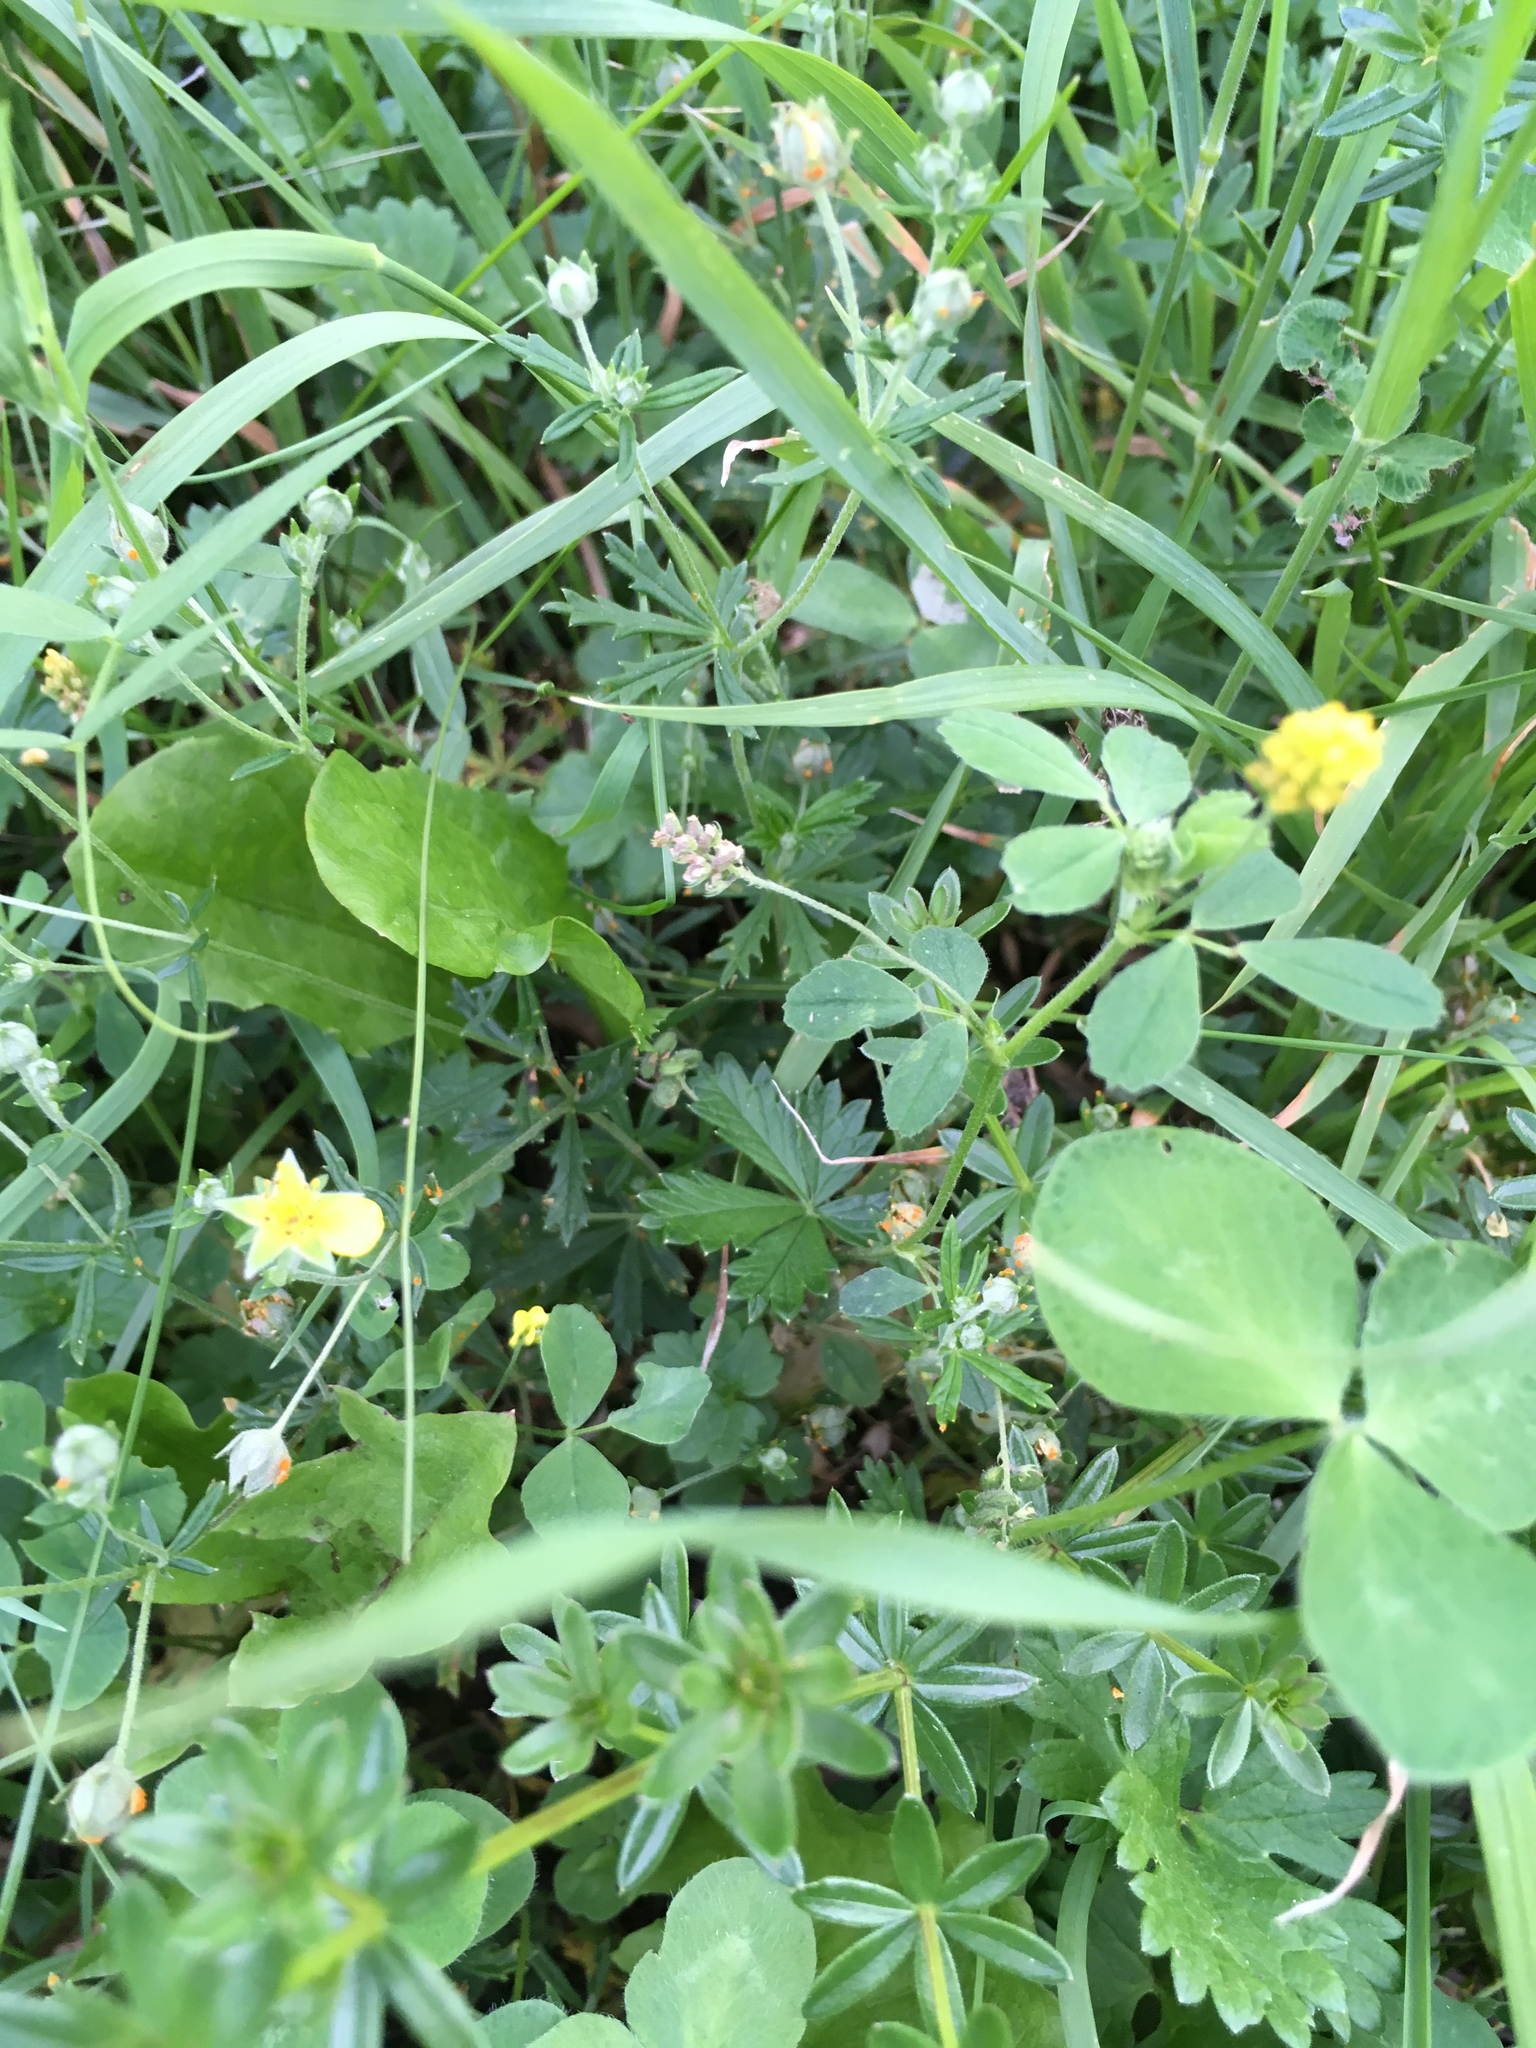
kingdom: Plantae
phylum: Tracheophyta
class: Magnoliopsida
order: Fabales
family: Fabaceae
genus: Medicago
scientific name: Medicago lupulina
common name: Black medick
